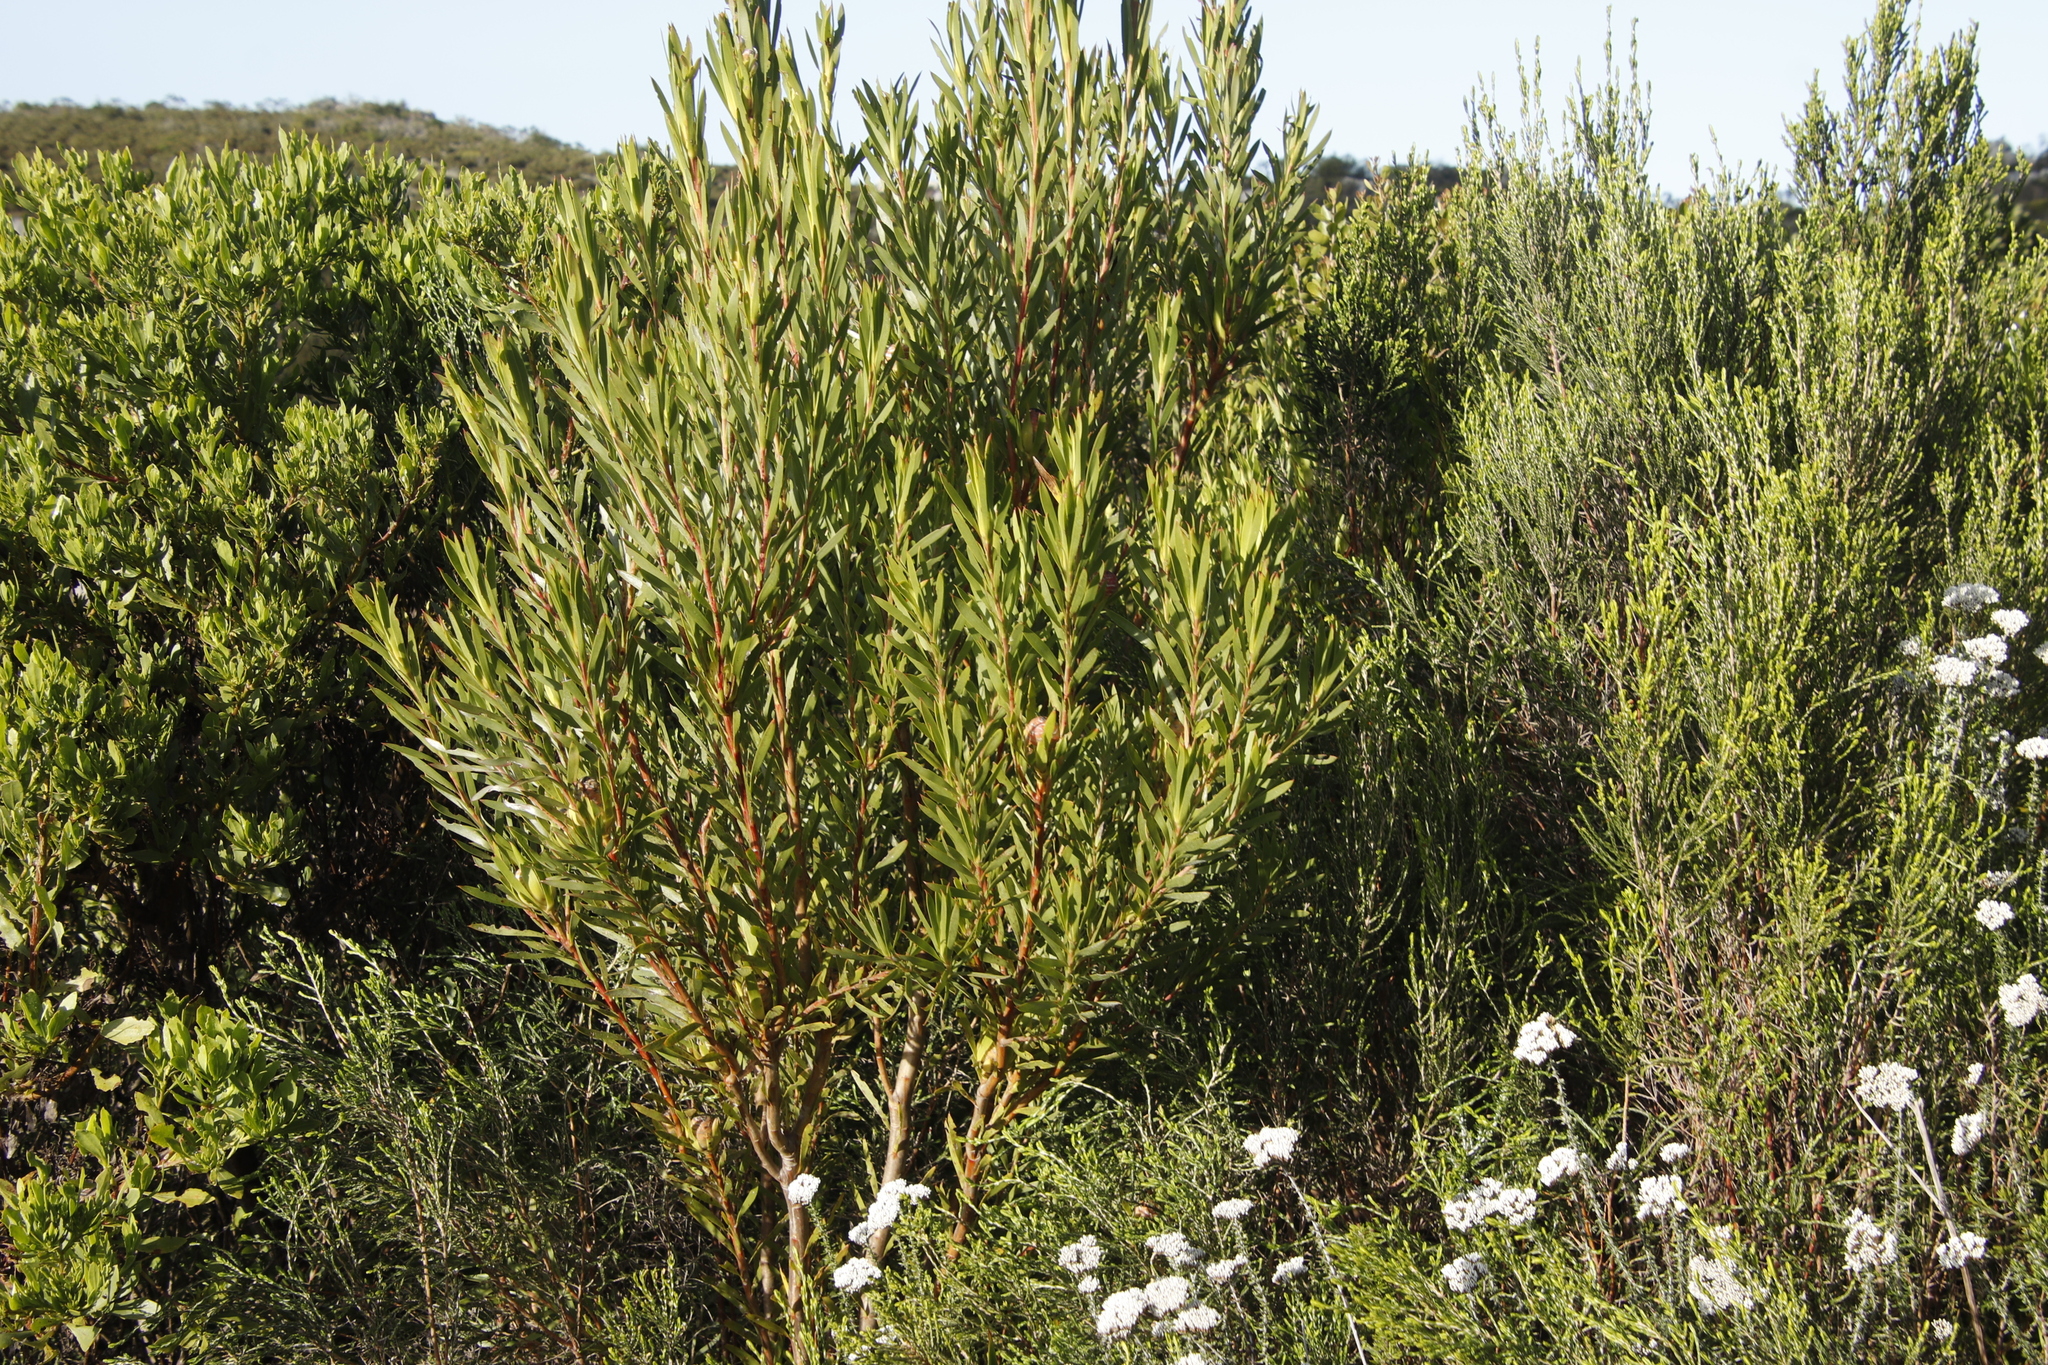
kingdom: Plantae
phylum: Tracheophyta
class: Magnoliopsida
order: Proteales
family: Proteaceae
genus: Leucadendron
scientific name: Leucadendron xanthoconus
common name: Sickle-leaf conebush
